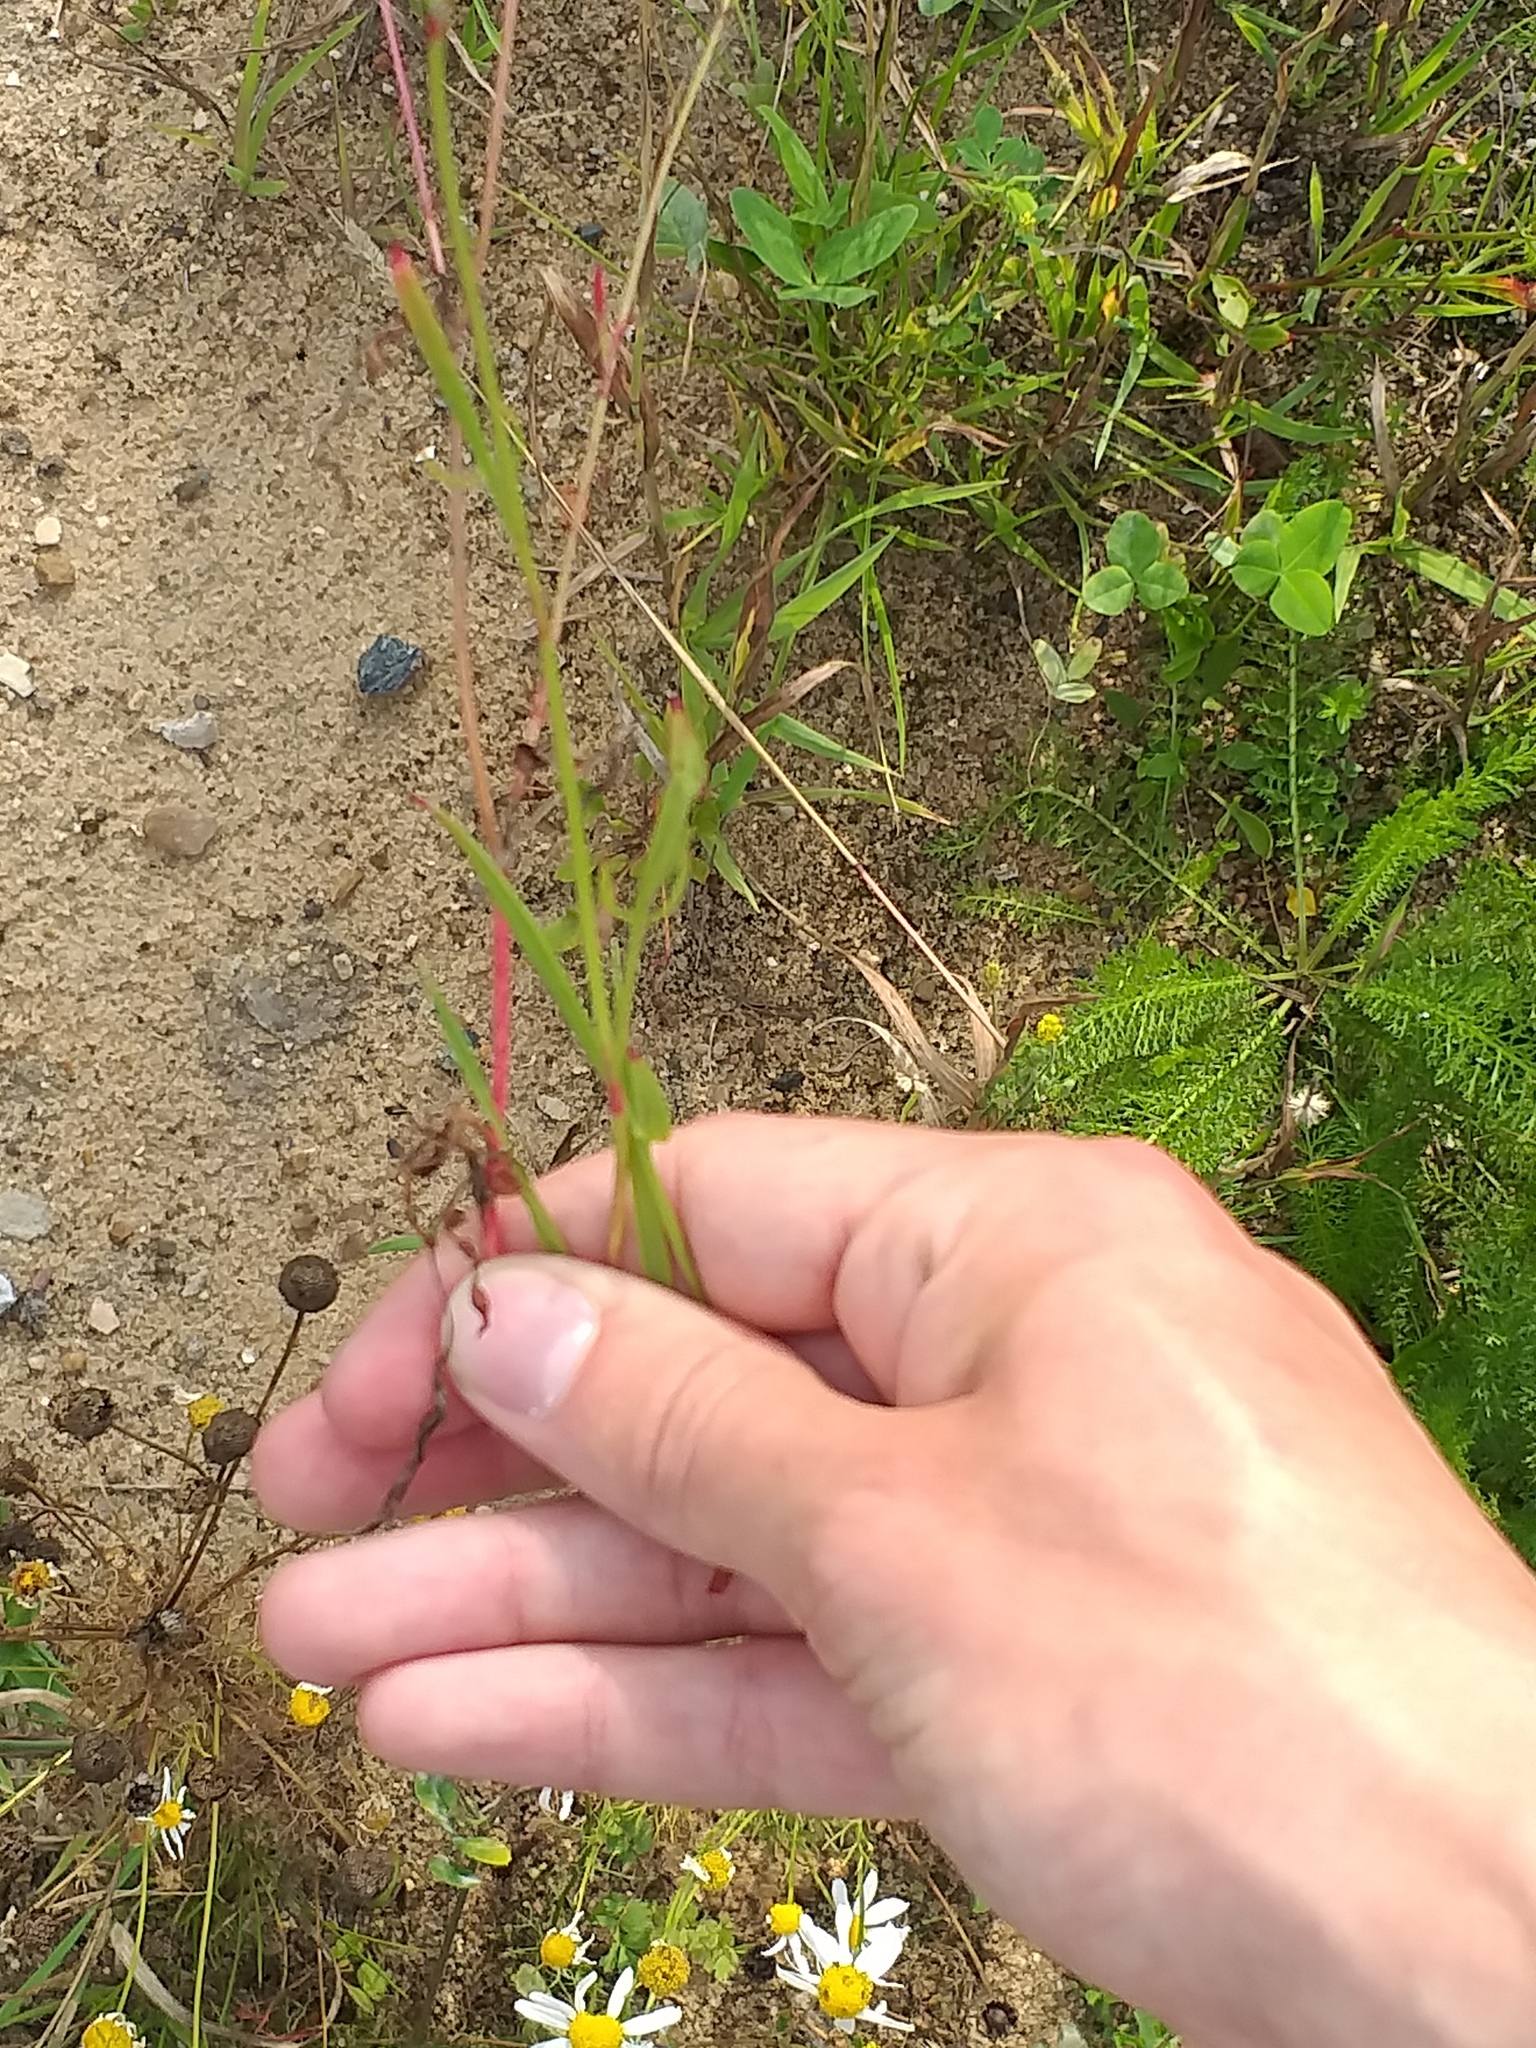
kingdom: Plantae
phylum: Tracheophyta
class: Magnoliopsida
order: Caryophyllales
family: Polygonaceae
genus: Rumex
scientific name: Rumex acetosella
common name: Common sheep sorrel
